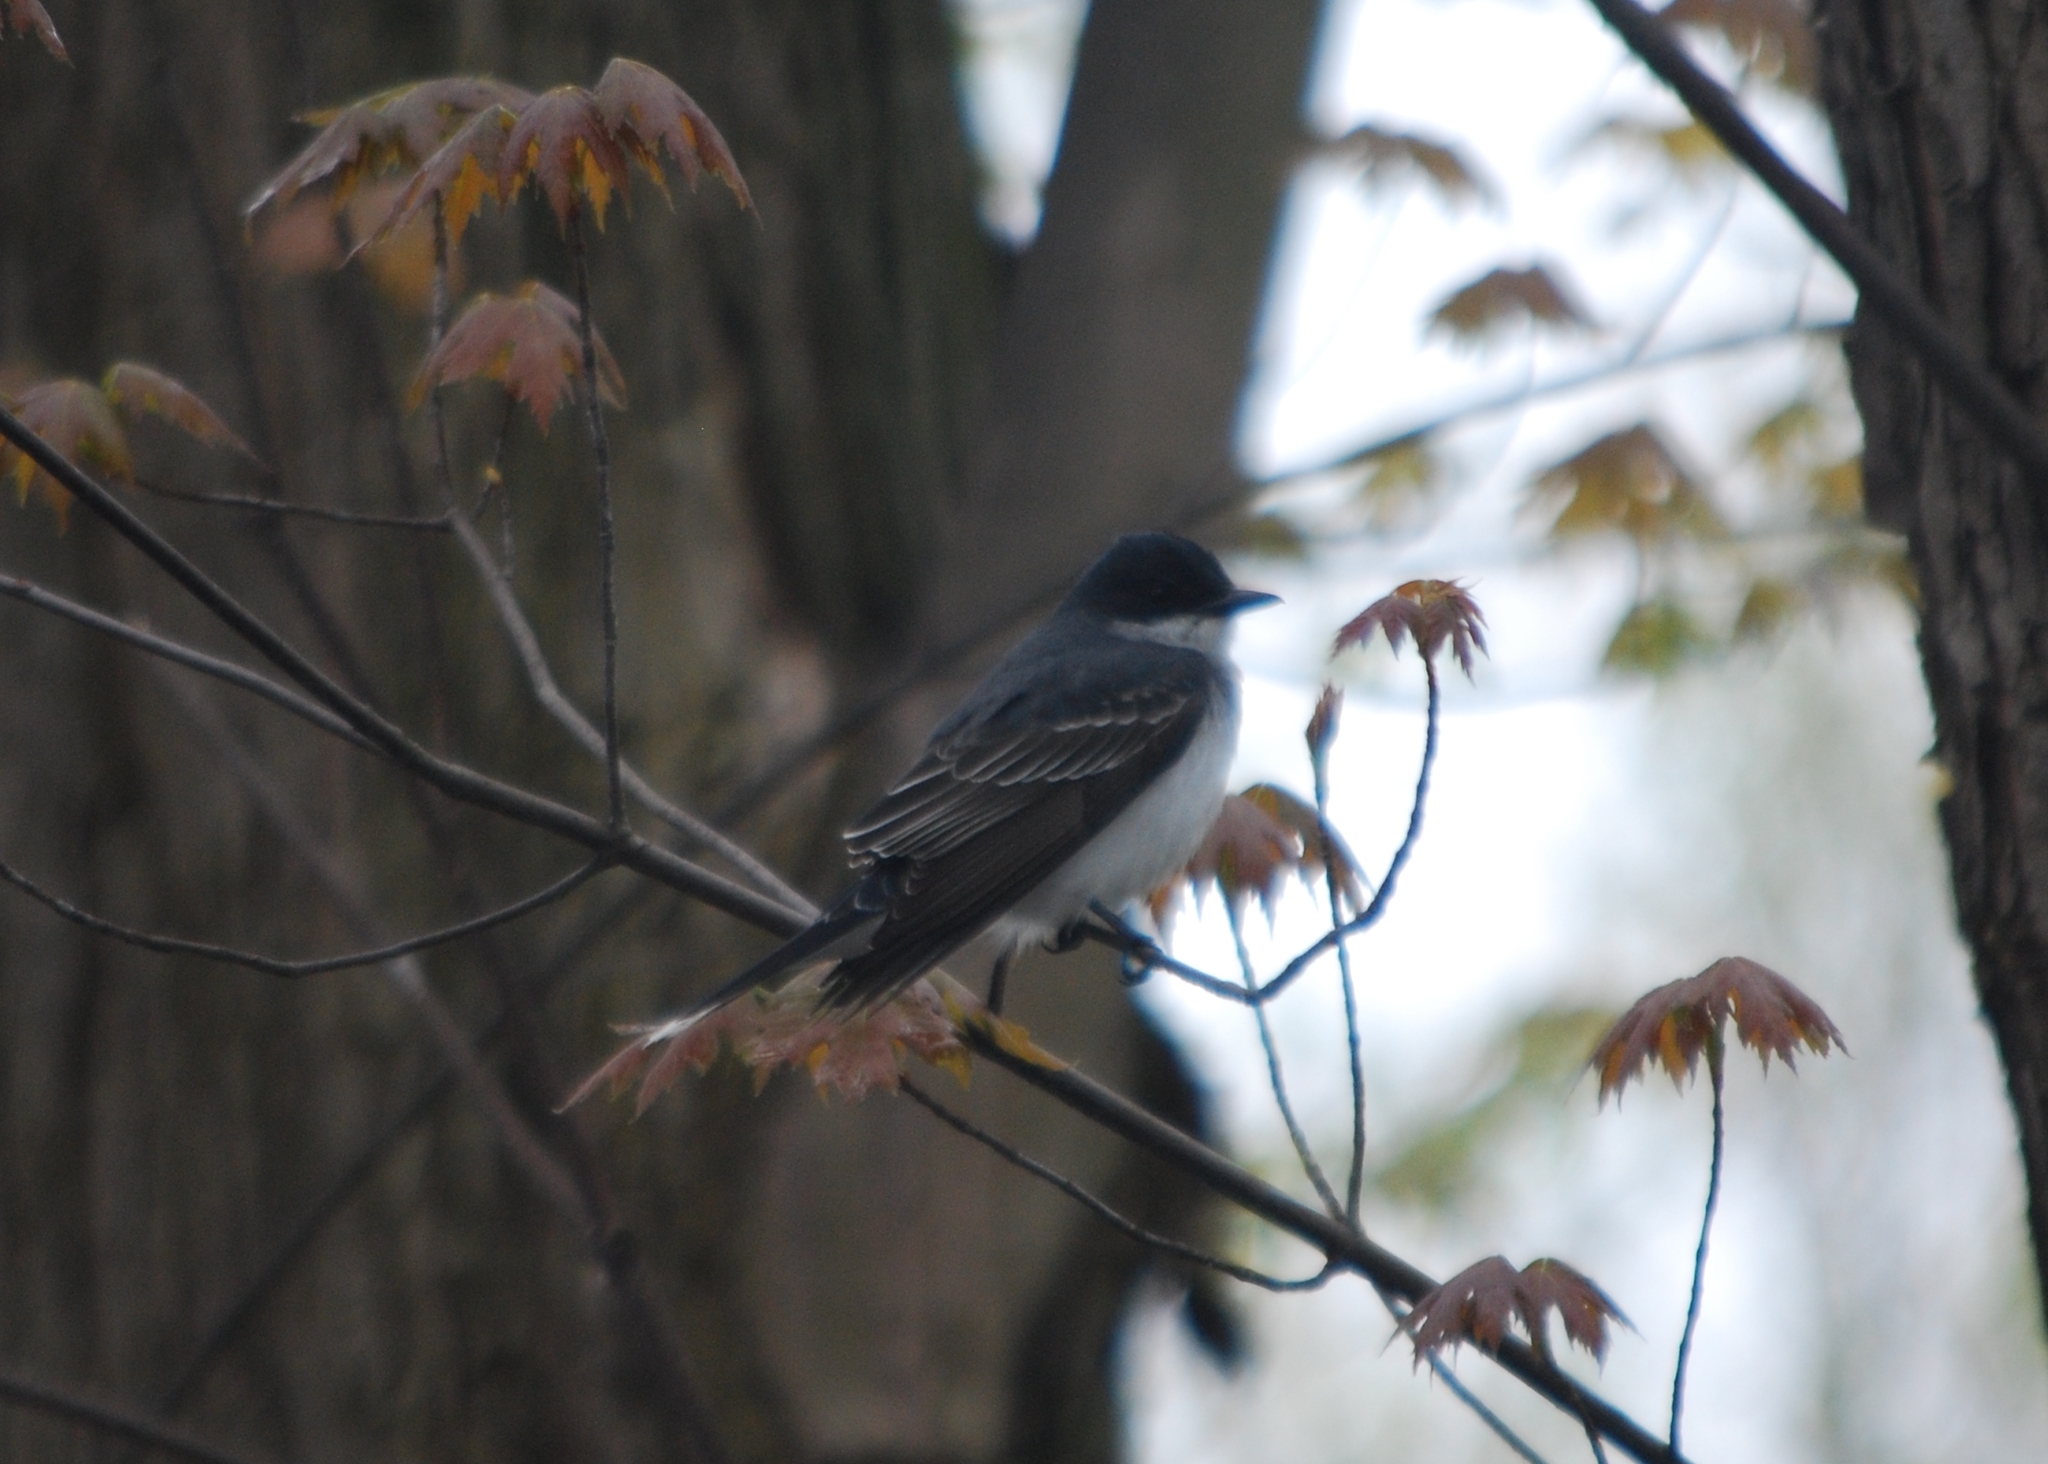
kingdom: Animalia
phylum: Chordata
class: Aves
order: Passeriformes
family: Tyrannidae
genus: Tyrannus
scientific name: Tyrannus tyrannus
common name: Eastern kingbird
